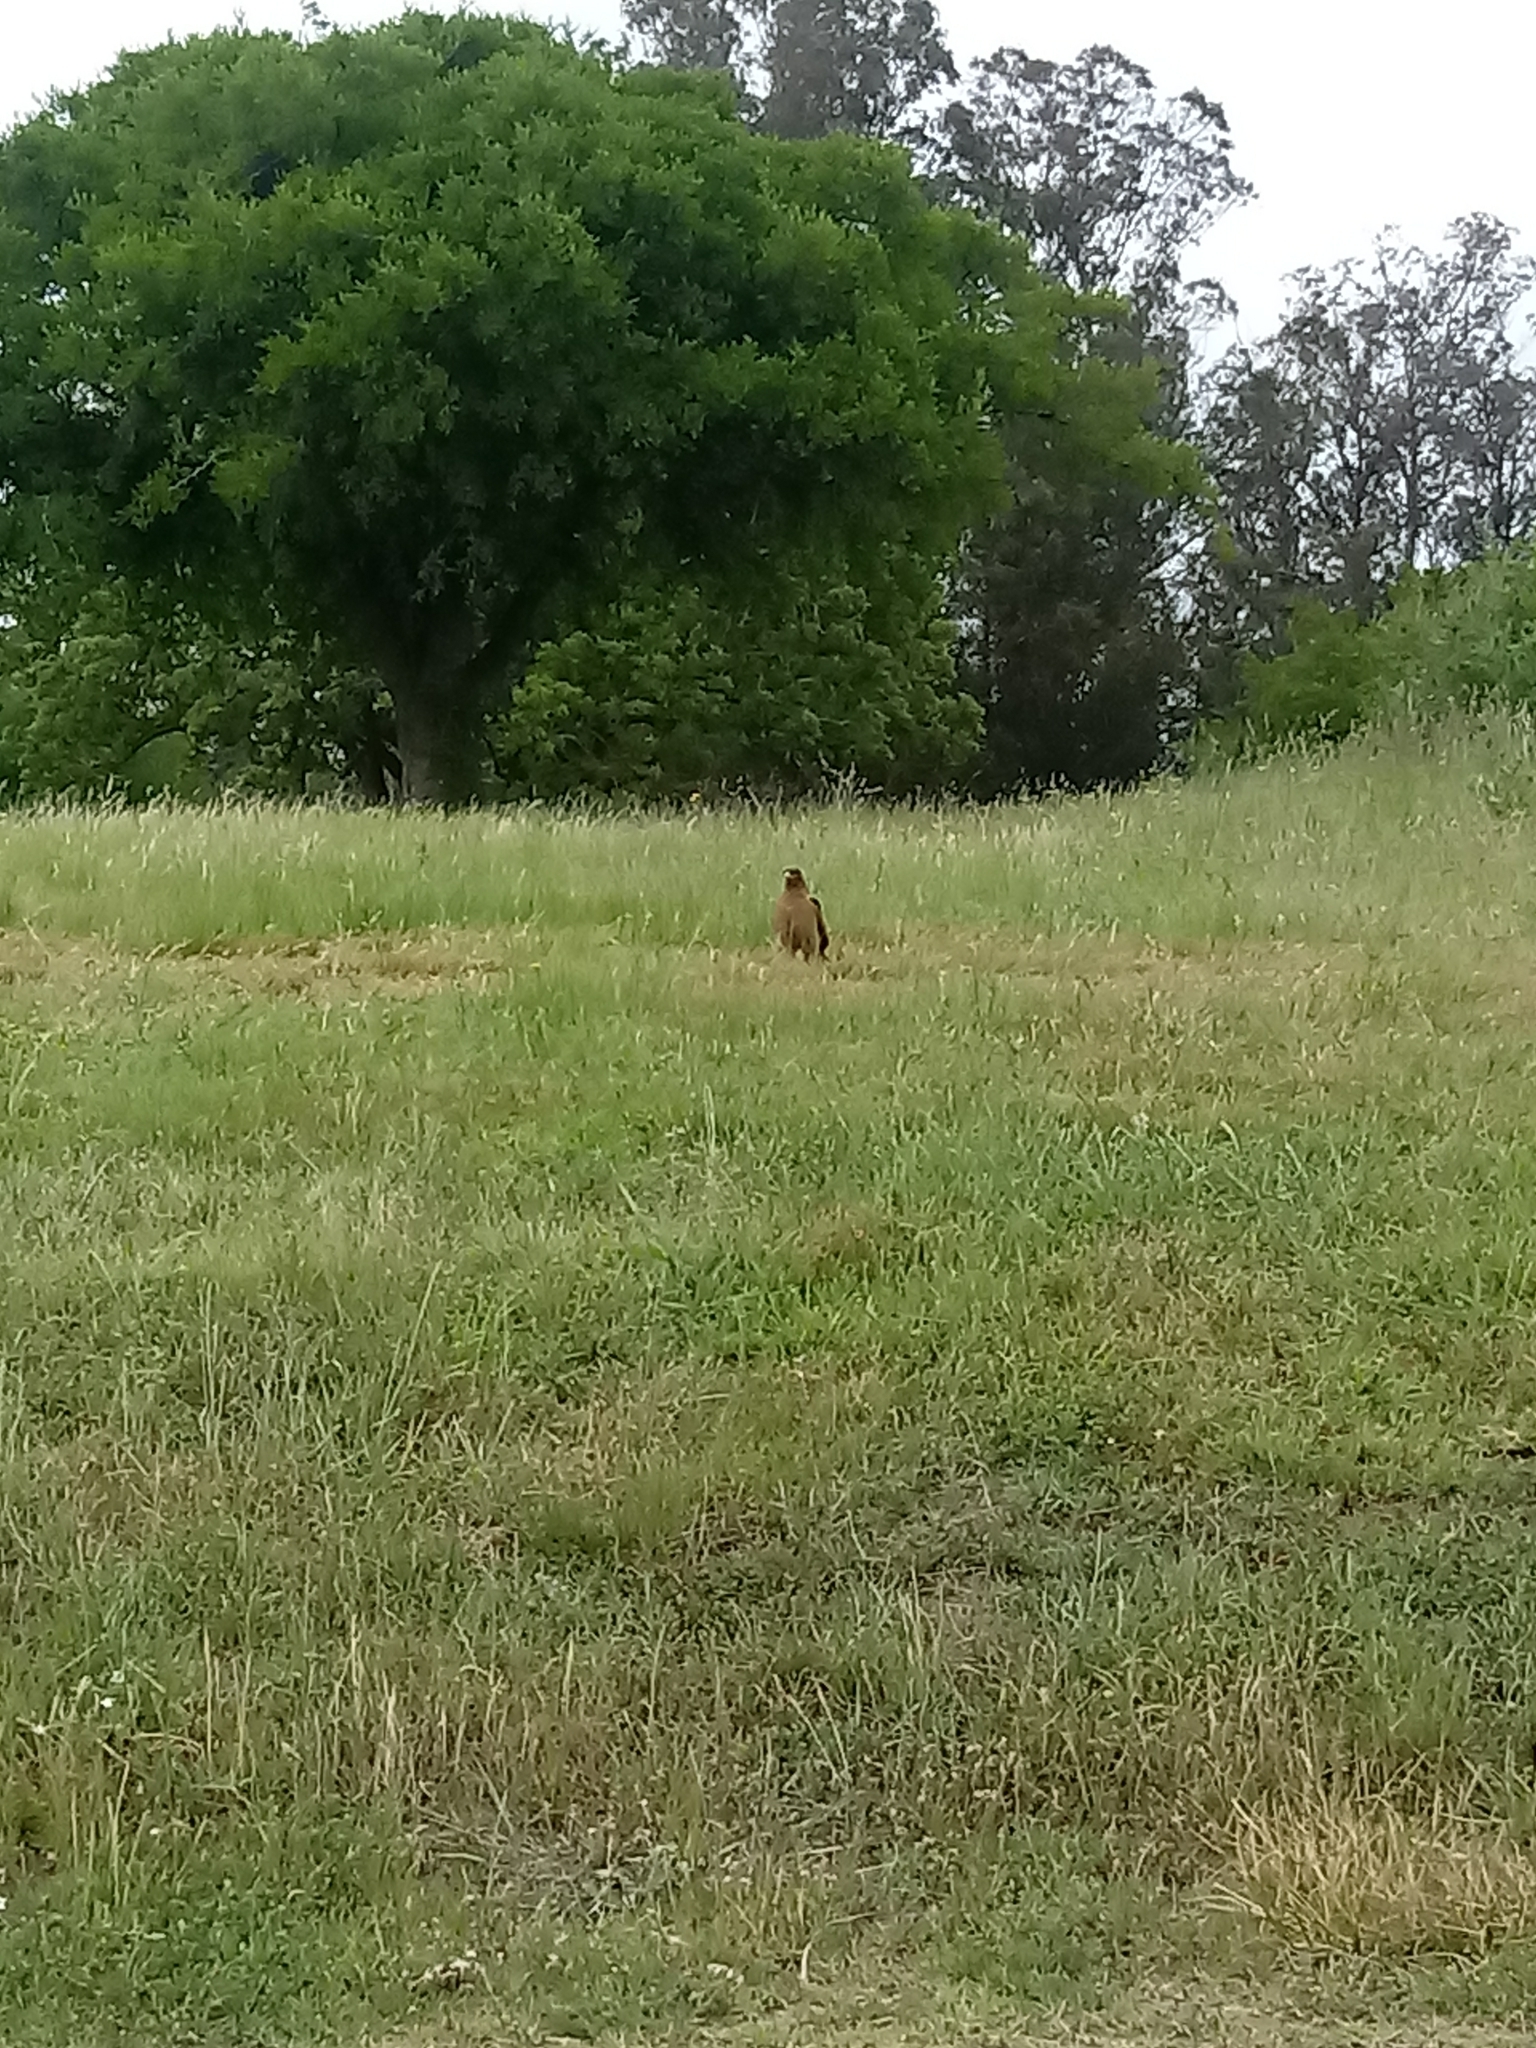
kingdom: Animalia
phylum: Chordata
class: Aves
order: Falconiformes
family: Falconidae
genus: Daptrius
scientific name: Daptrius
